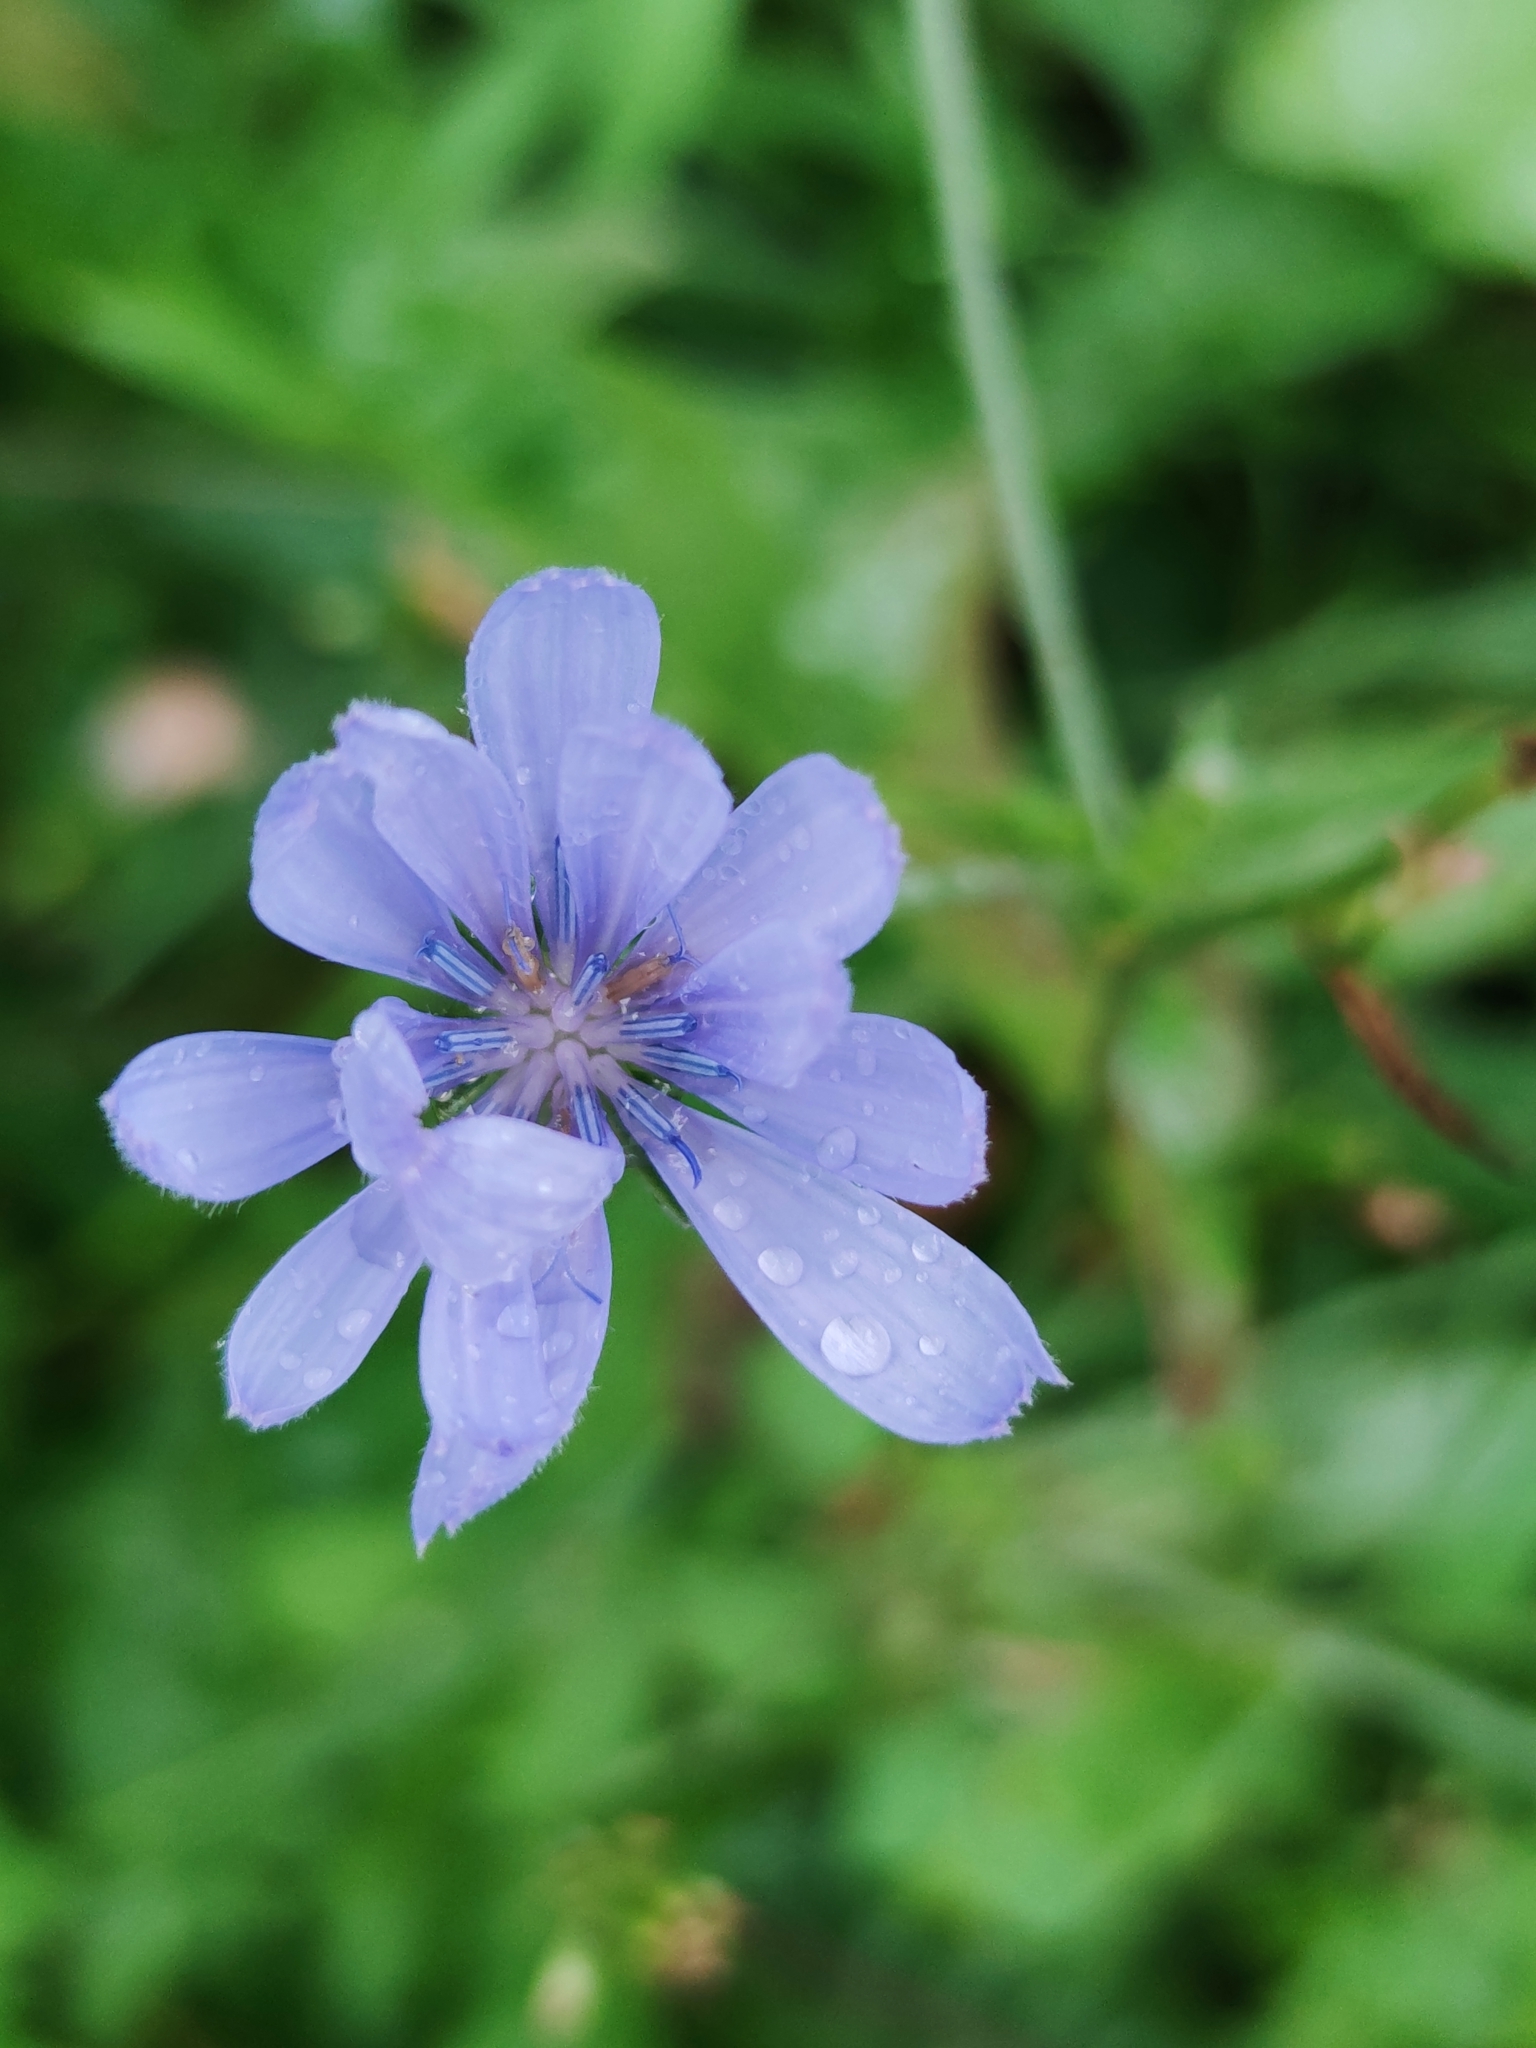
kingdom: Plantae
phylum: Tracheophyta
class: Magnoliopsida
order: Asterales
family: Asteraceae
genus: Cichorium
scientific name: Cichorium intybus
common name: Chicory
